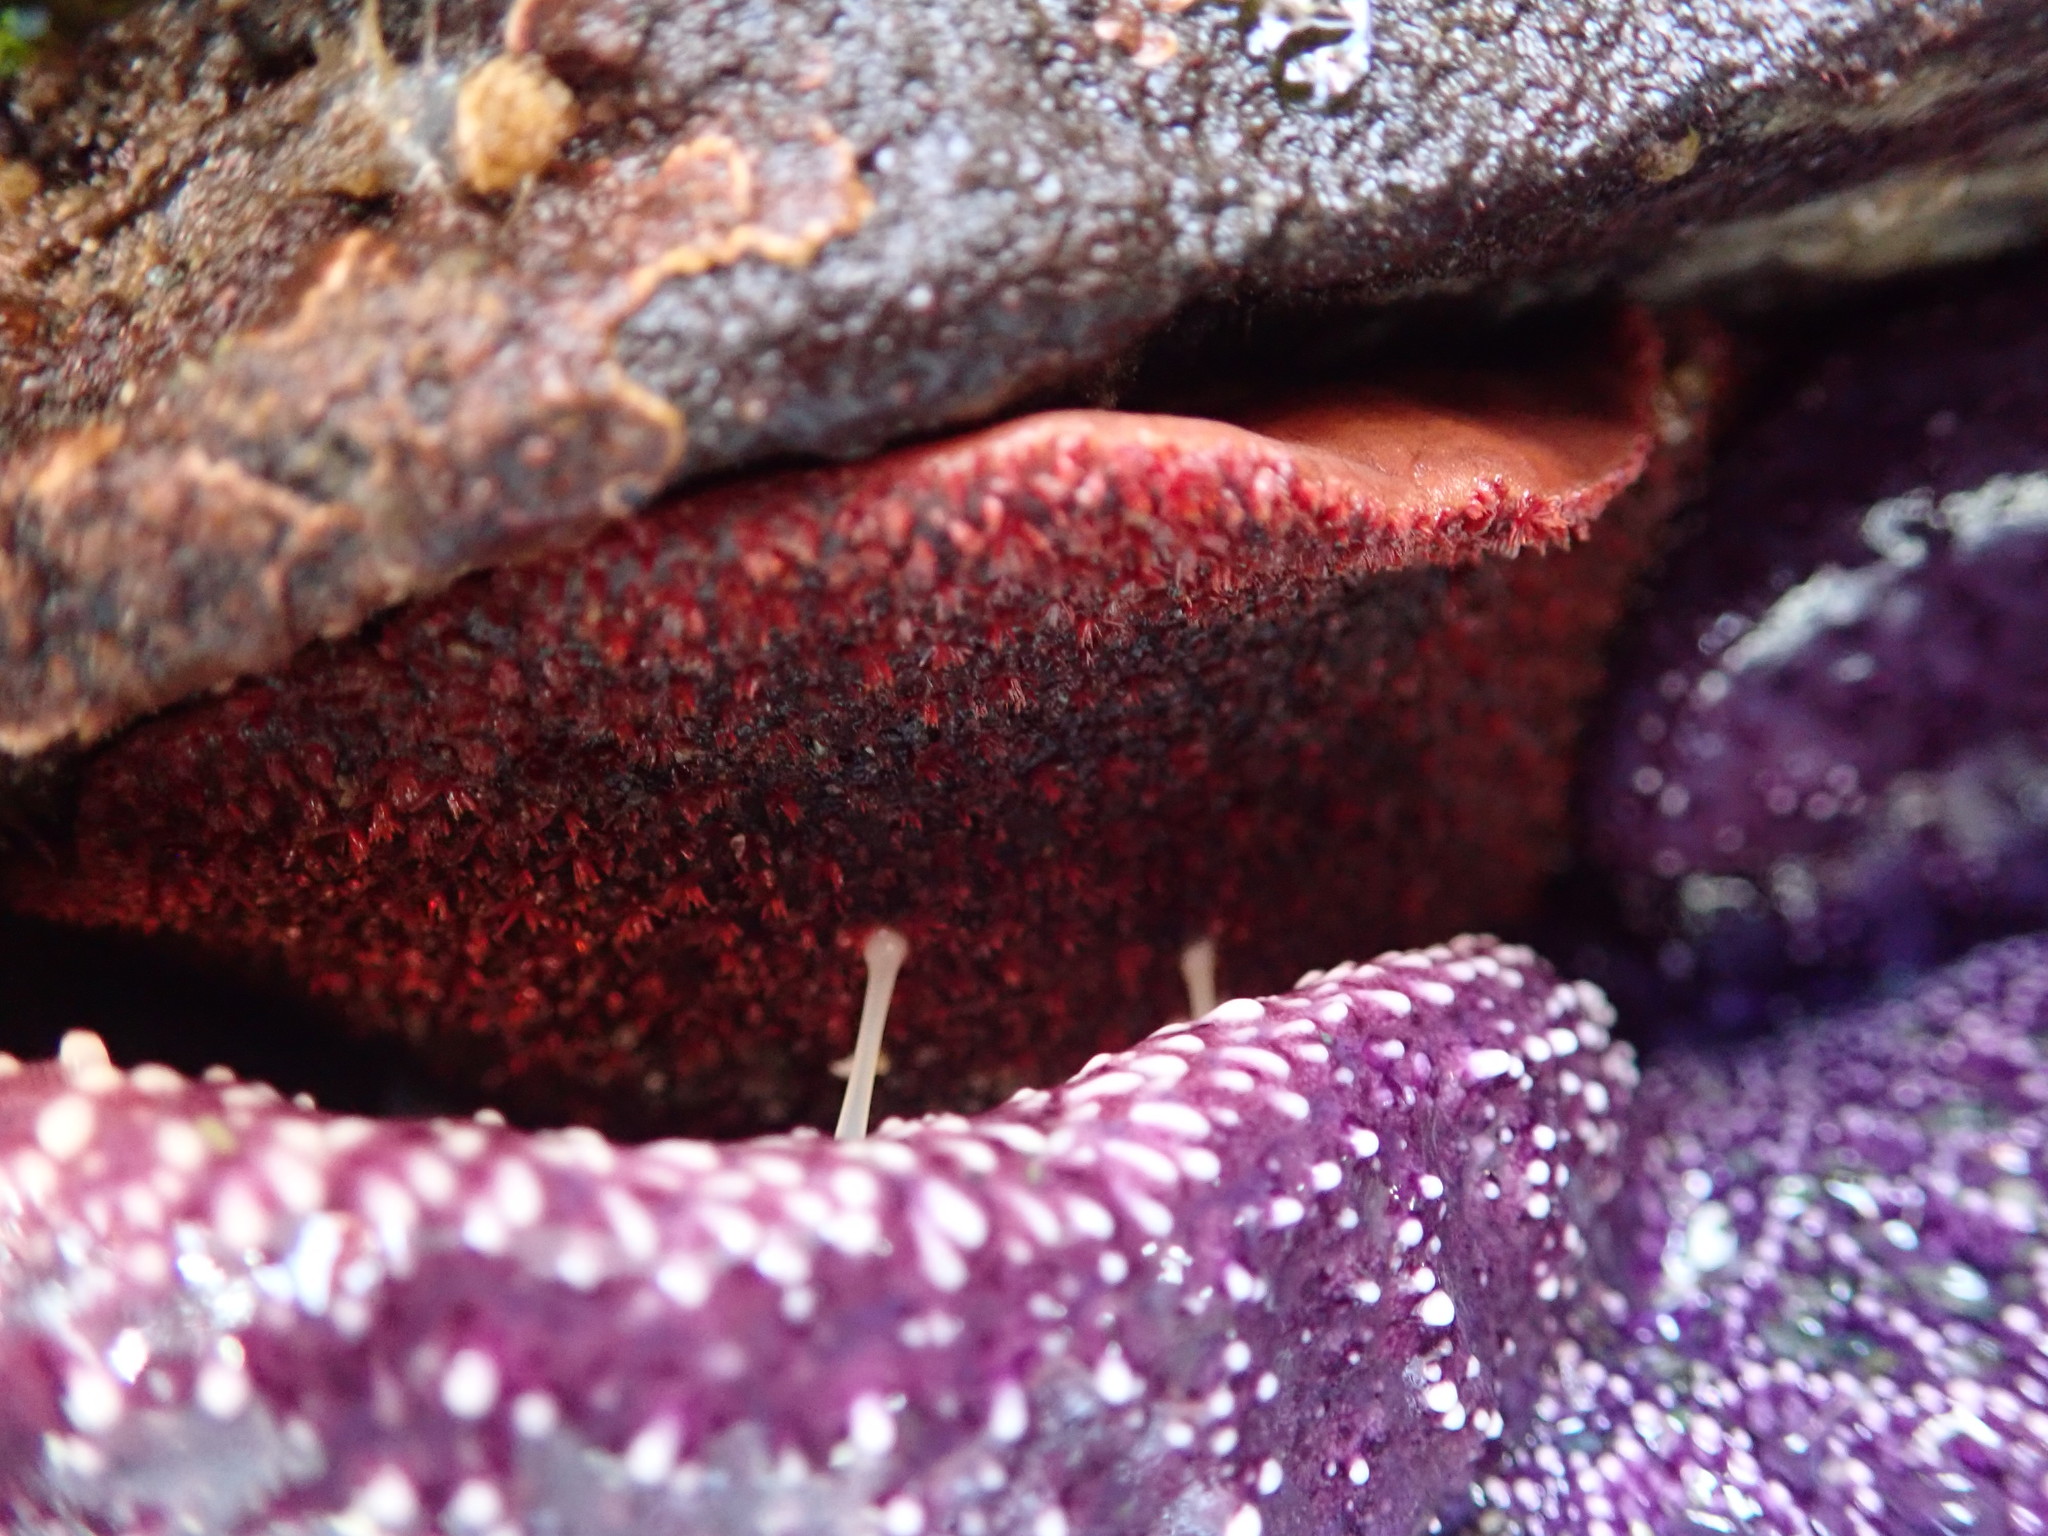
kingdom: Animalia
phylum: Mollusca
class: Polyplacophora
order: Chitonida
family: Acanthochitonidae
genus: Cryptochiton
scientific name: Cryptochiton stelleri
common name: Giant pacific chiton
